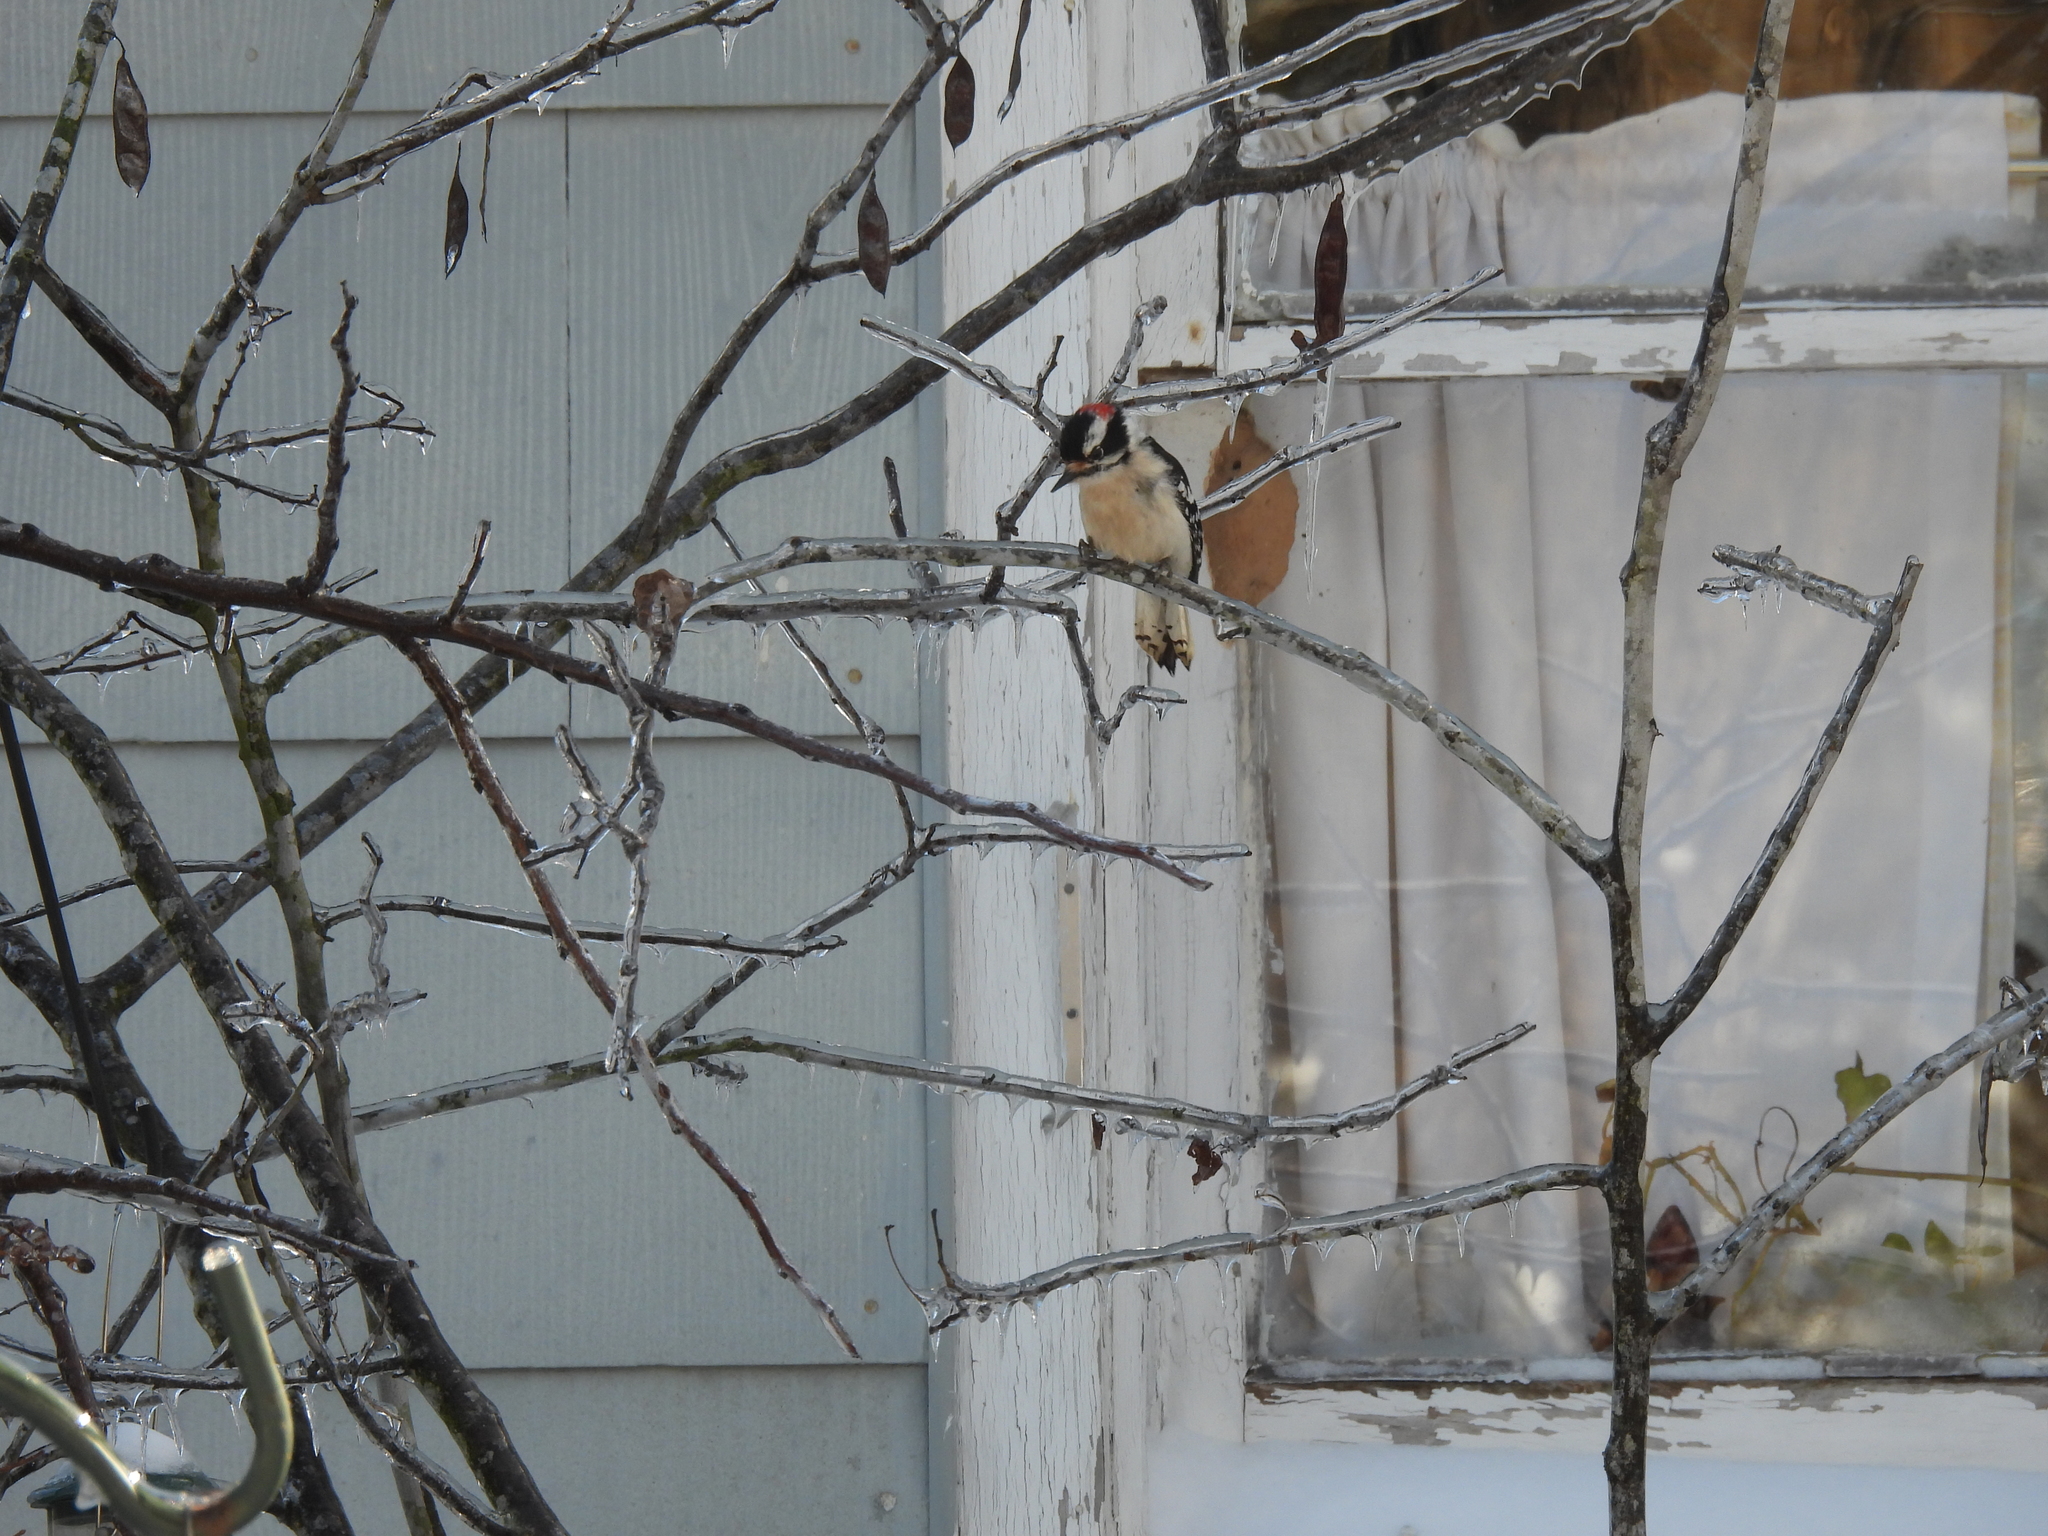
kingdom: Animalia
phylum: Chordata
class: Aves
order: Piciformes
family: Picidae
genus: Dryobates
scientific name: Dryobates pubescens
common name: Downy woodpecker
